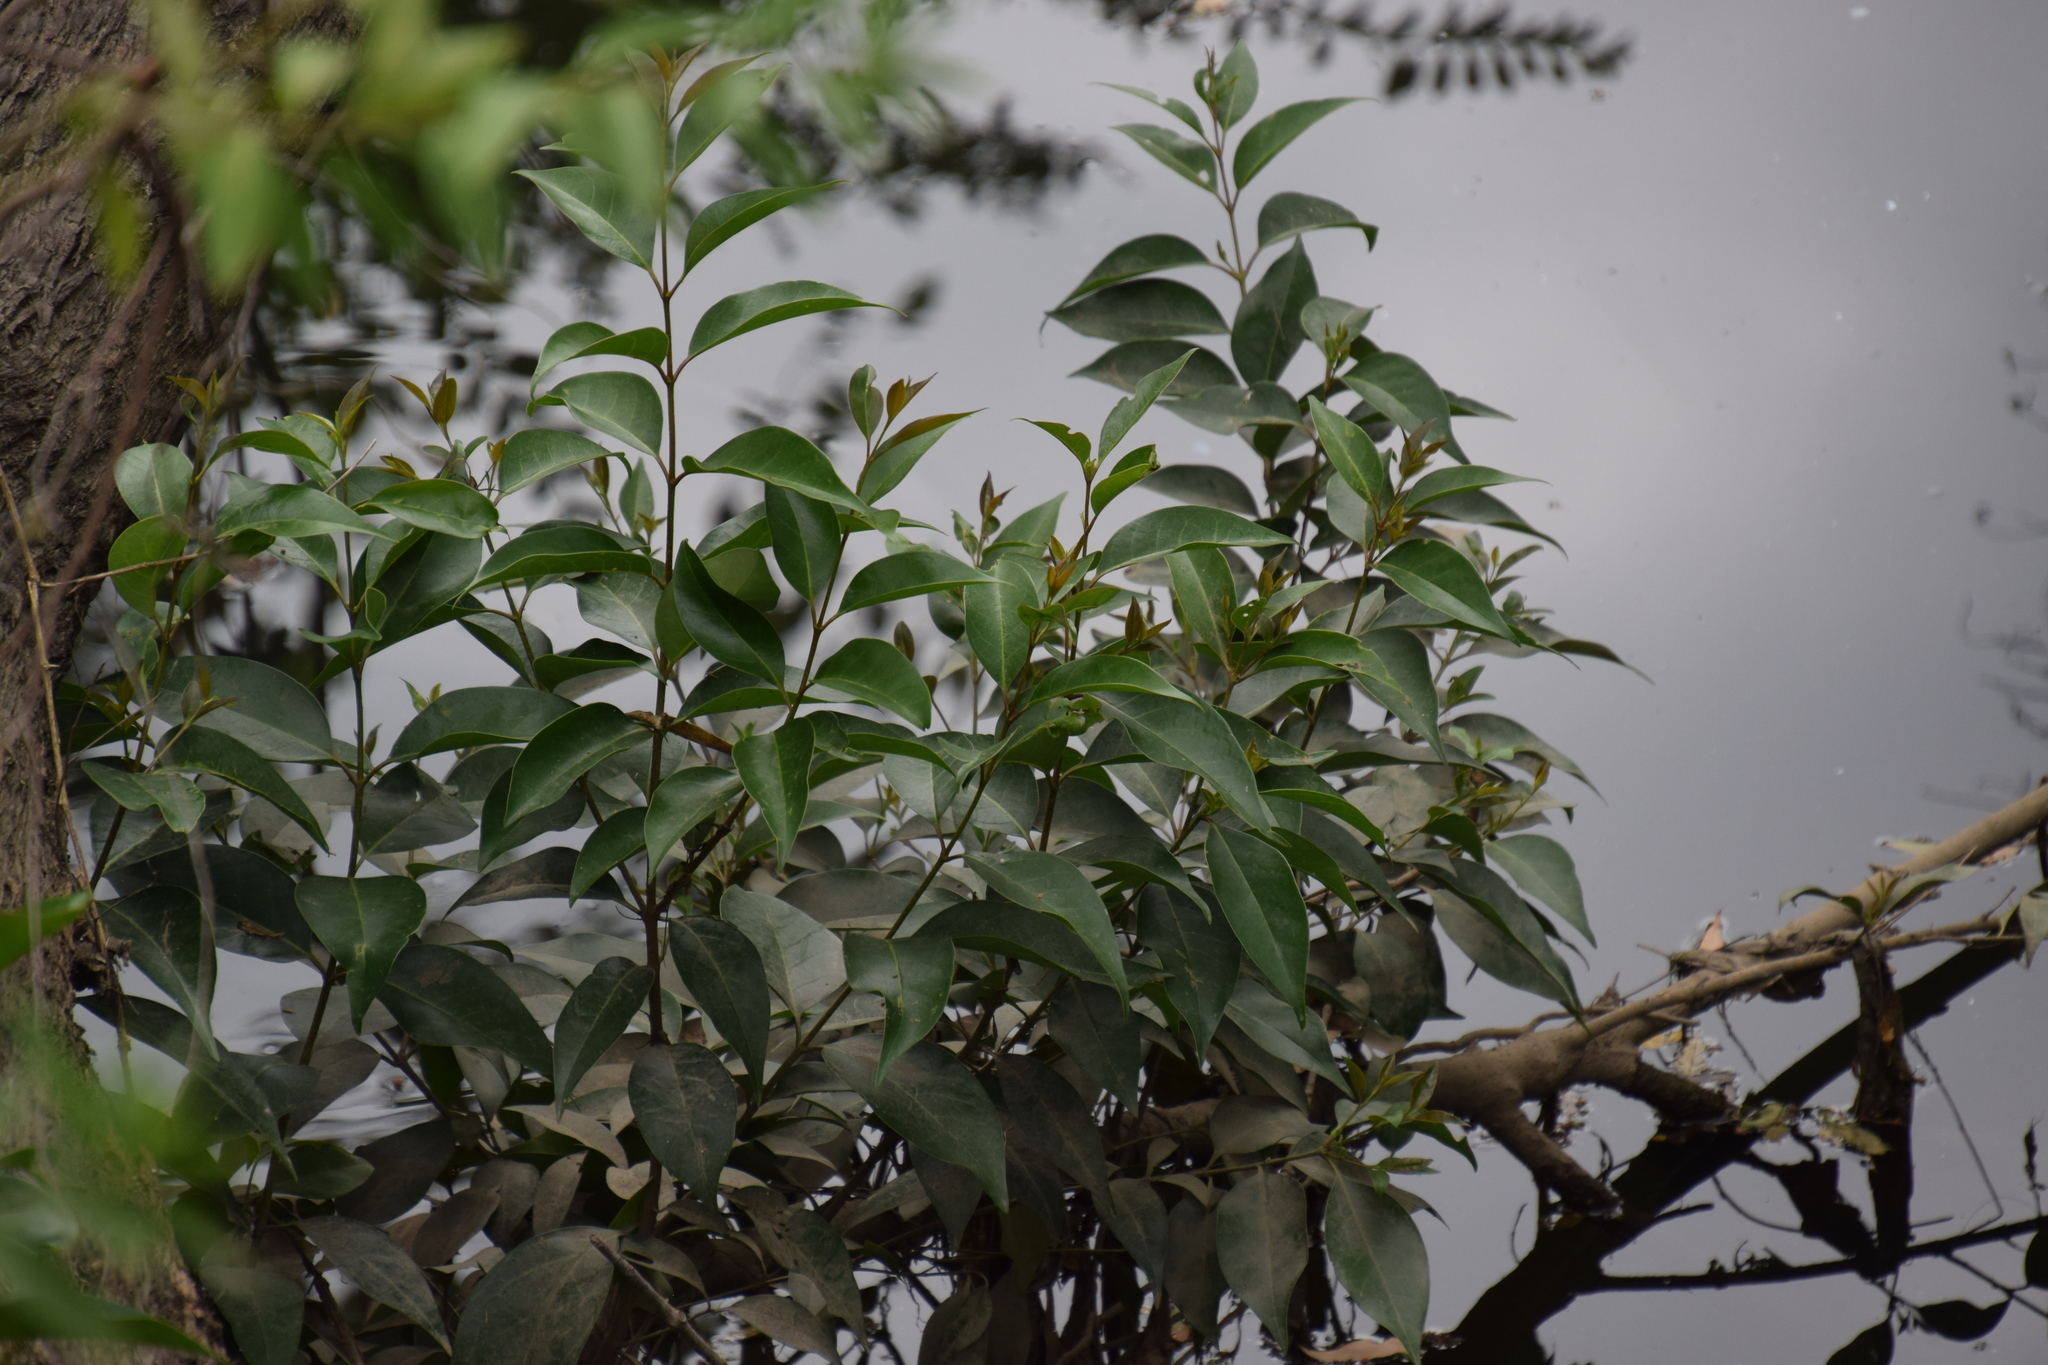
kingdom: Plantae
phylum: Tracheophyta
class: Magnoliopsida
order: Lamiales
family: Oleaceae
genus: Ligustrum
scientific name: Ligustrum lucidum
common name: Glossy privet
